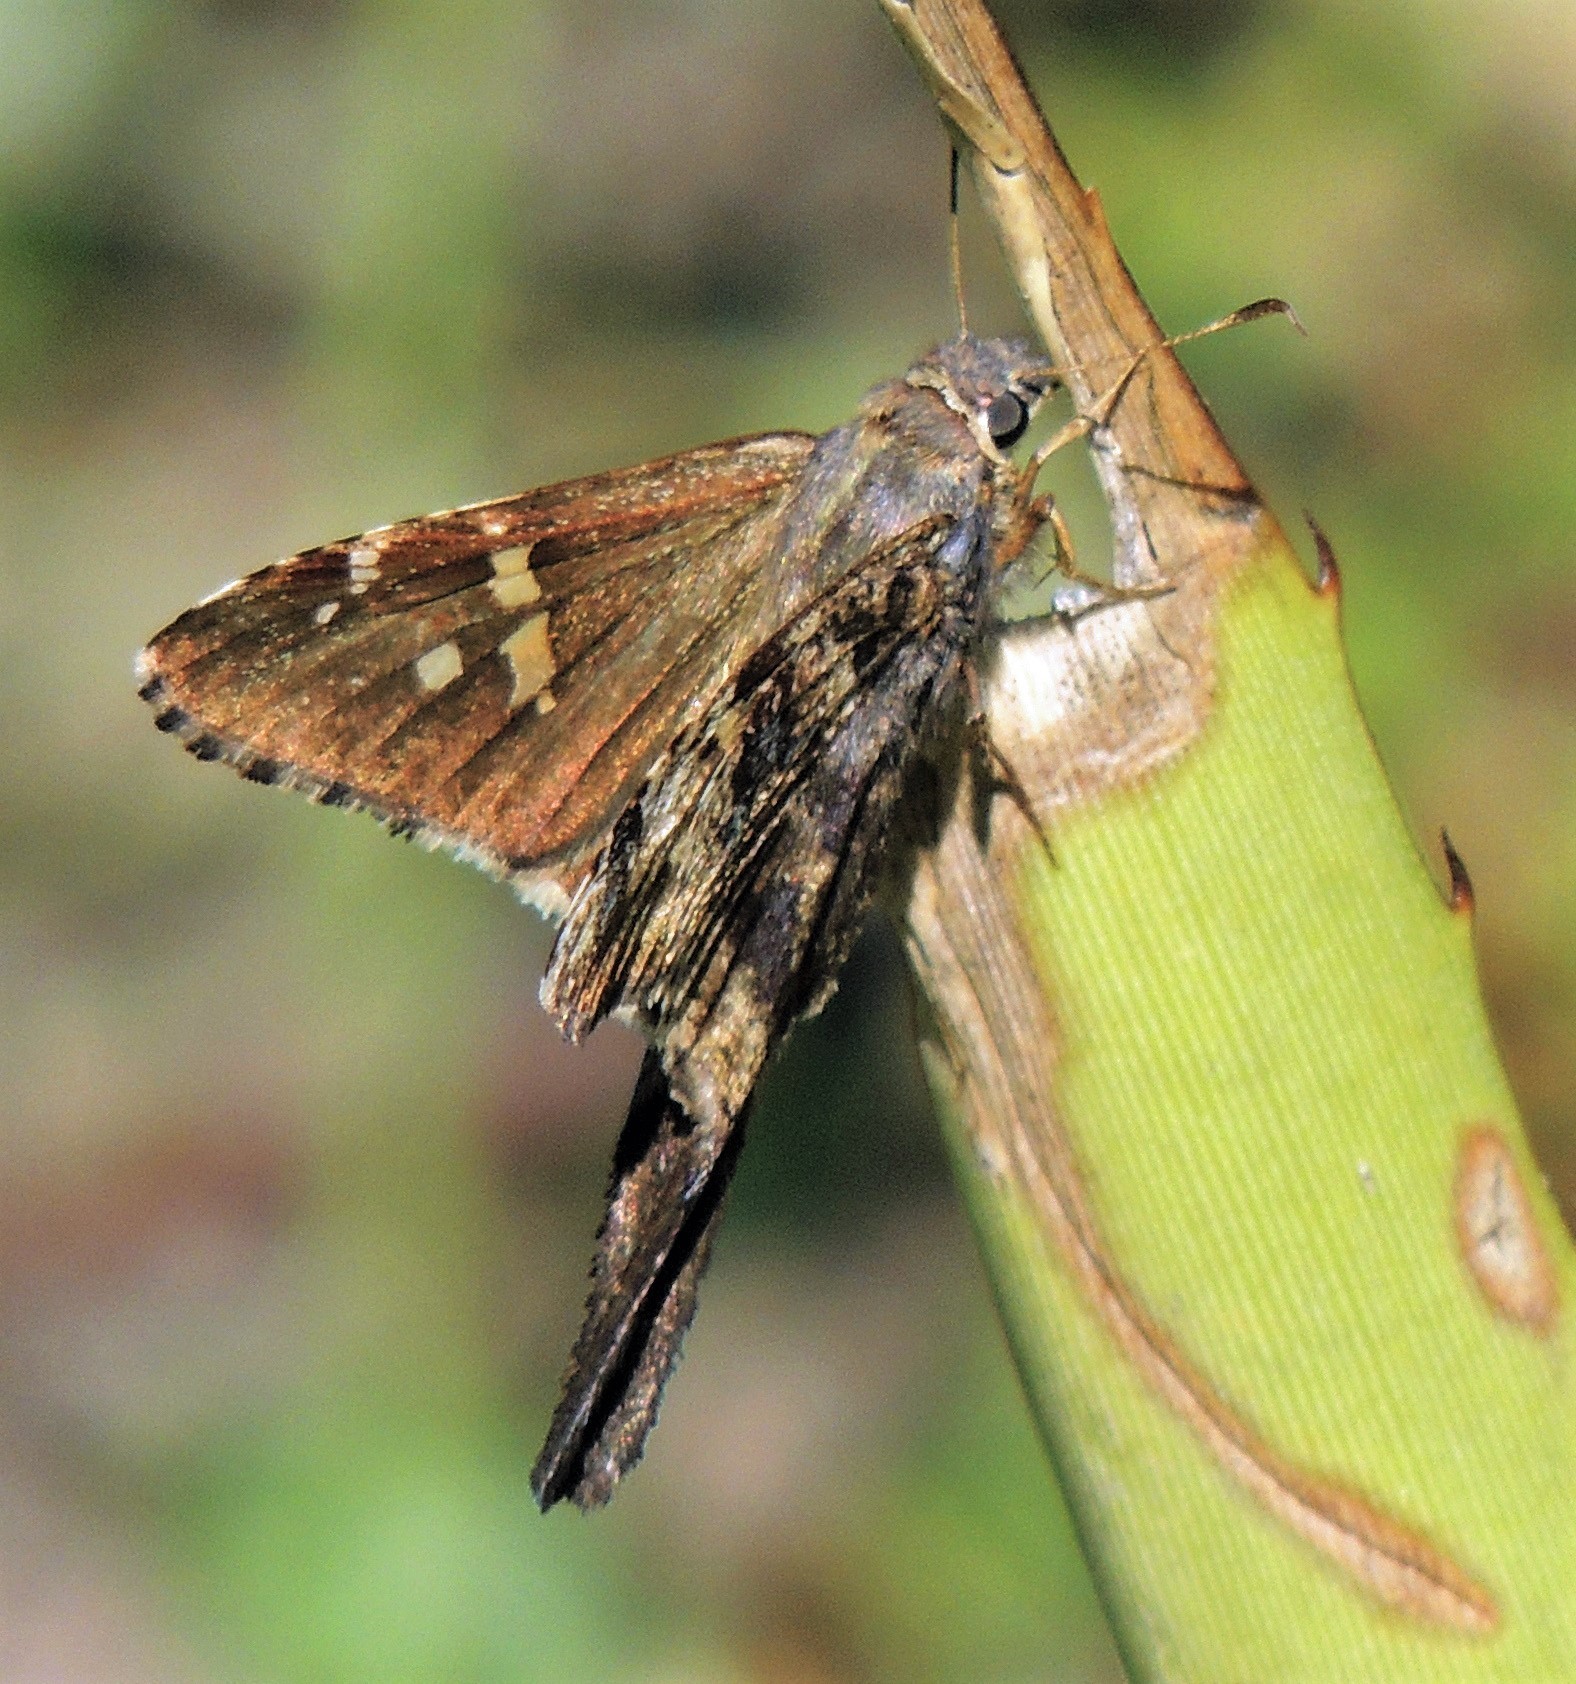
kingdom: Animalia
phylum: Arthropoda
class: Insecta
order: Lepidoptera
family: Hesperiidae
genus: Typhedanus
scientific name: Typhedanus undulatus
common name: Mottled longtail
